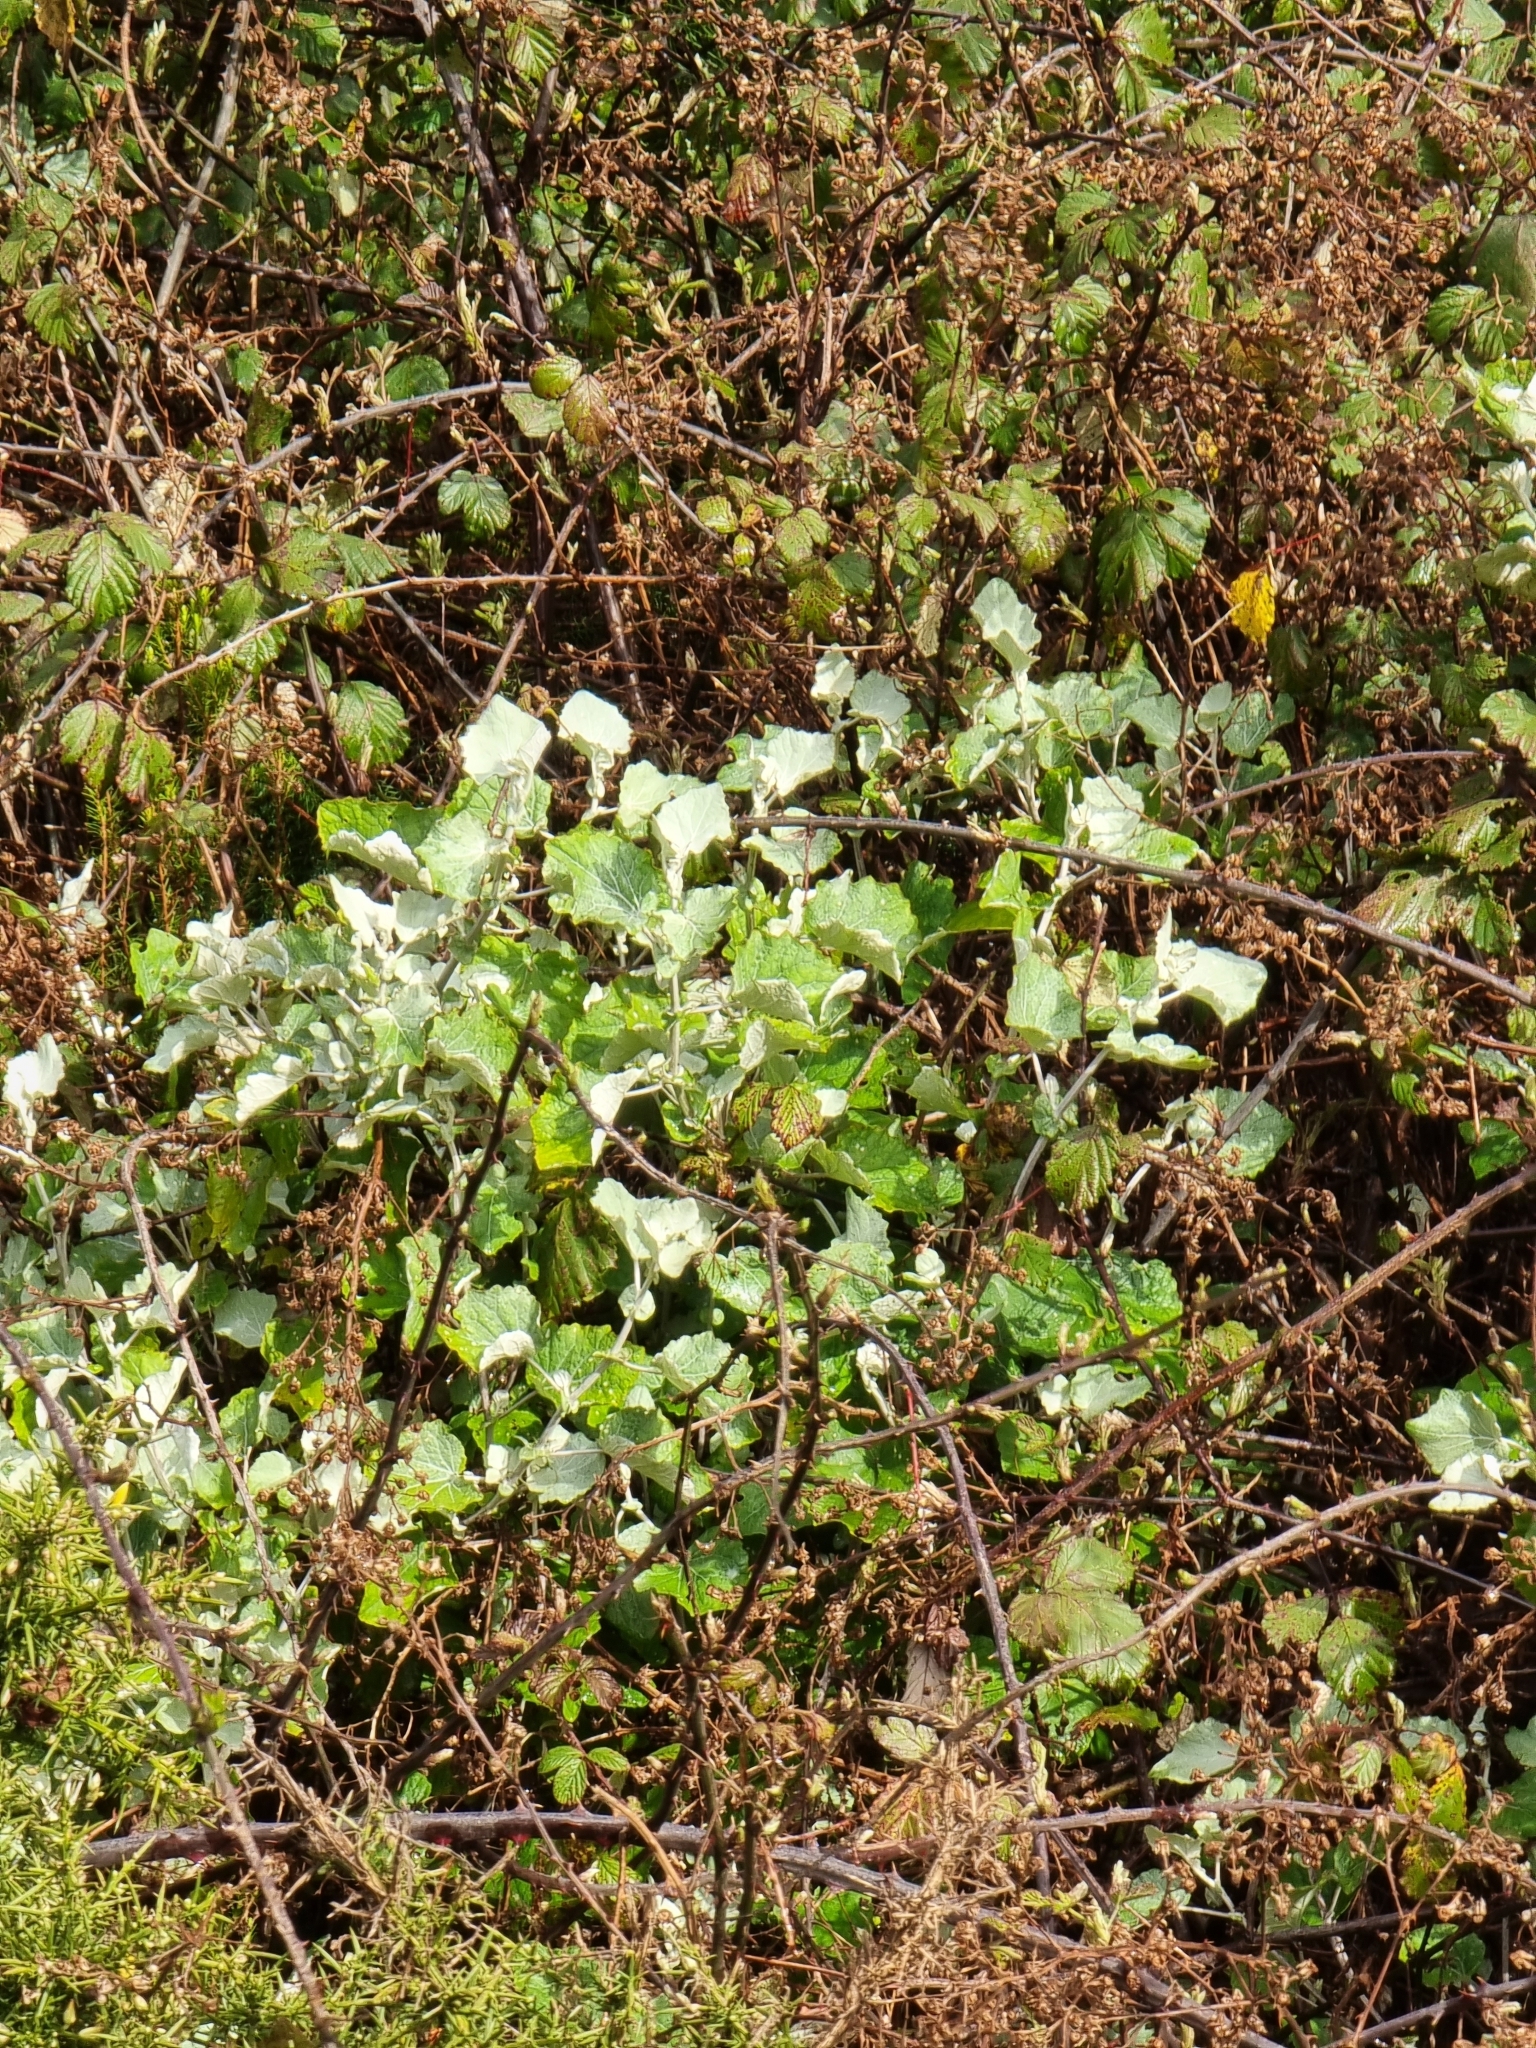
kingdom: Plantae
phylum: Tracheophyta
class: Magnoliopsida
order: Asterales
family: Asteraceae
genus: Pericallis
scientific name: Pericallis aurita
